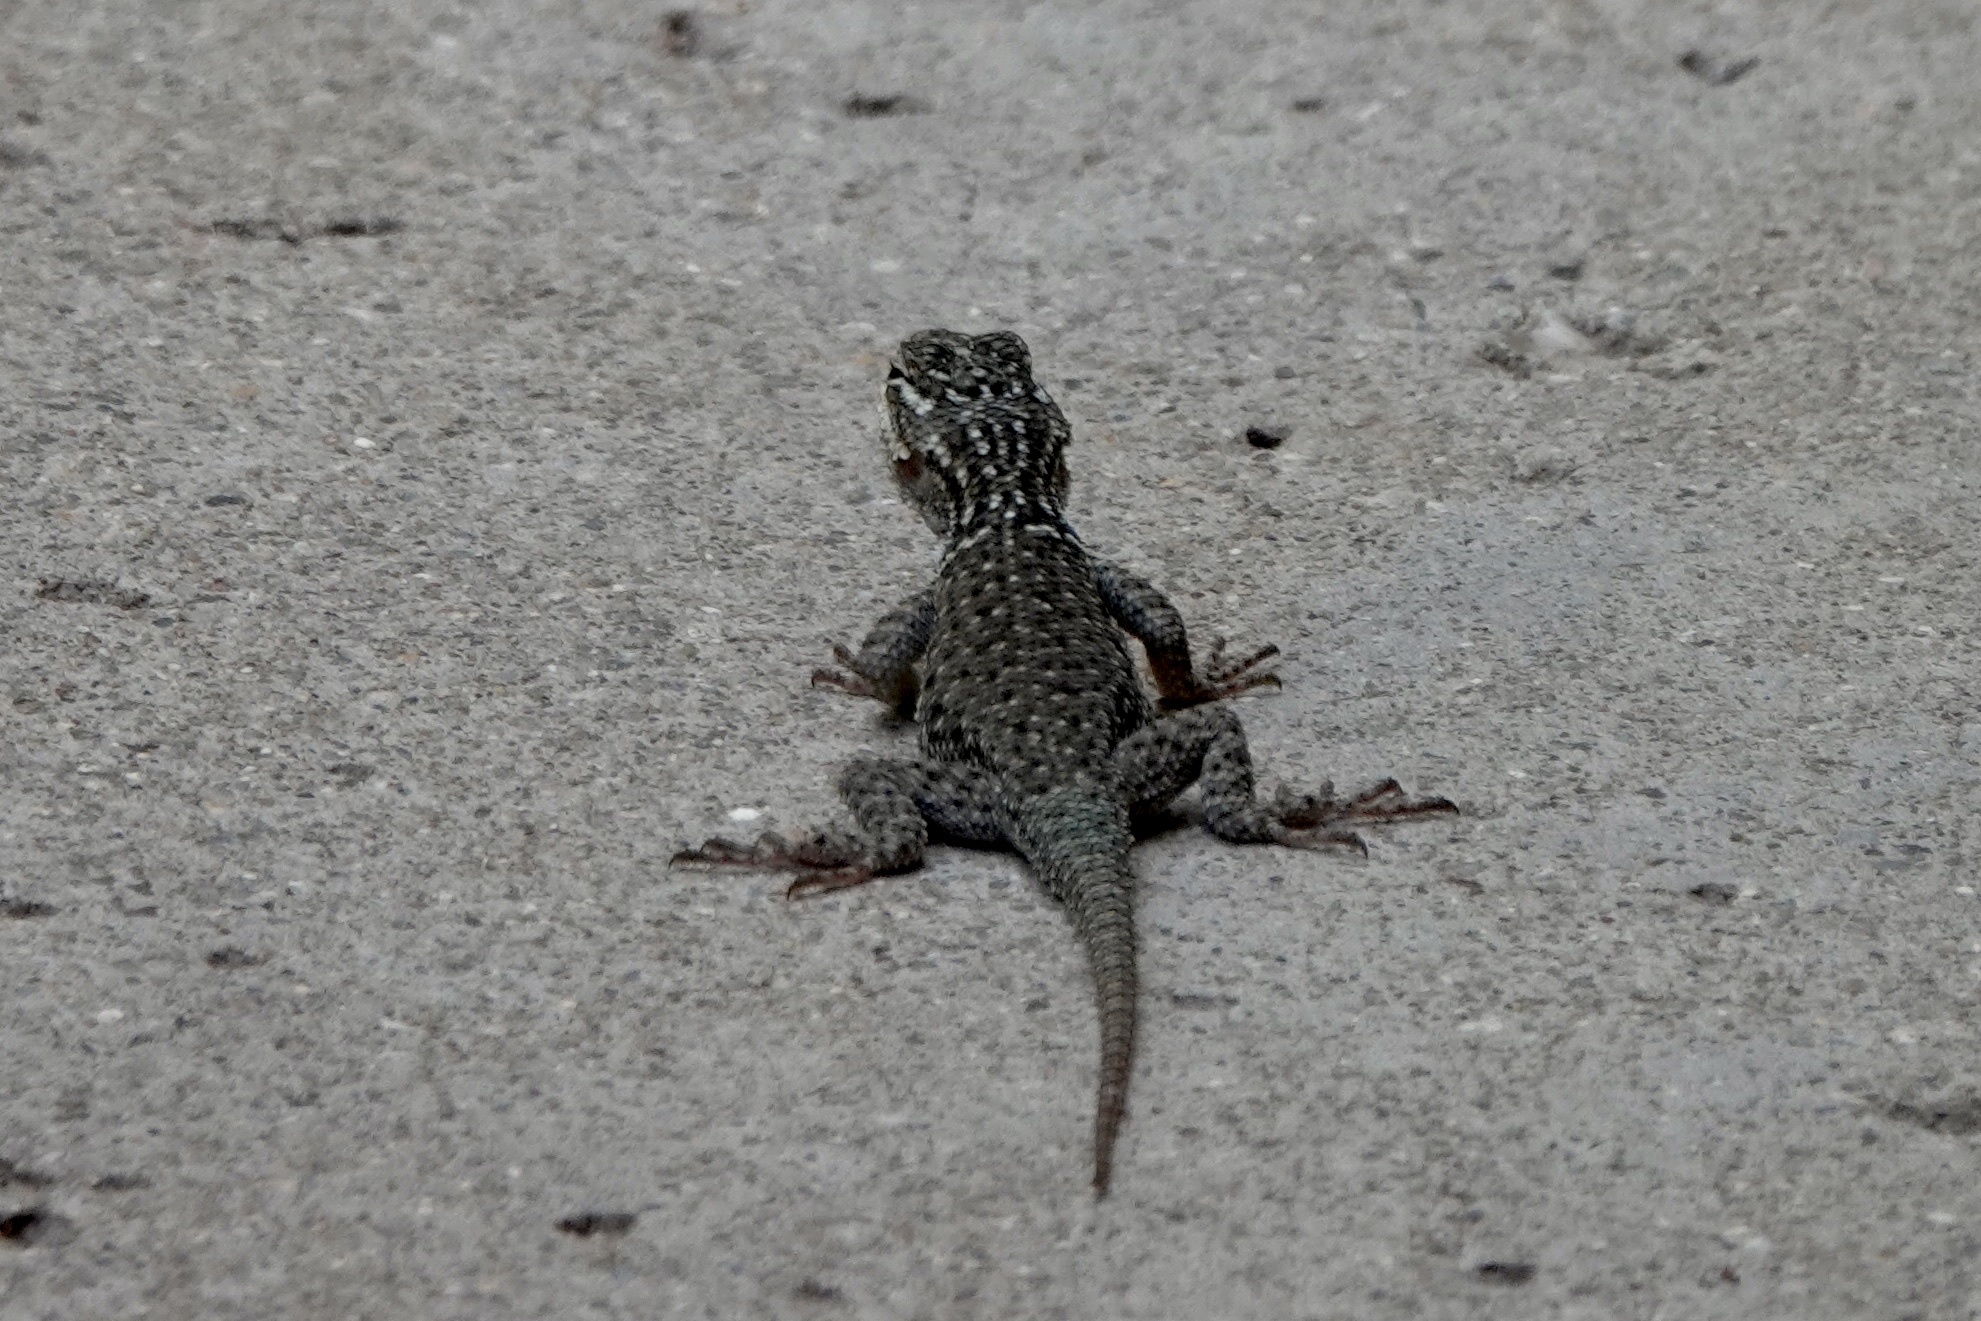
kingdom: Animalia
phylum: Chordata
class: Squamata
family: Phrynosomatidae
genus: Sceloporus
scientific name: Sceloporus jarrovii
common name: Yarrow's spiny lizard
